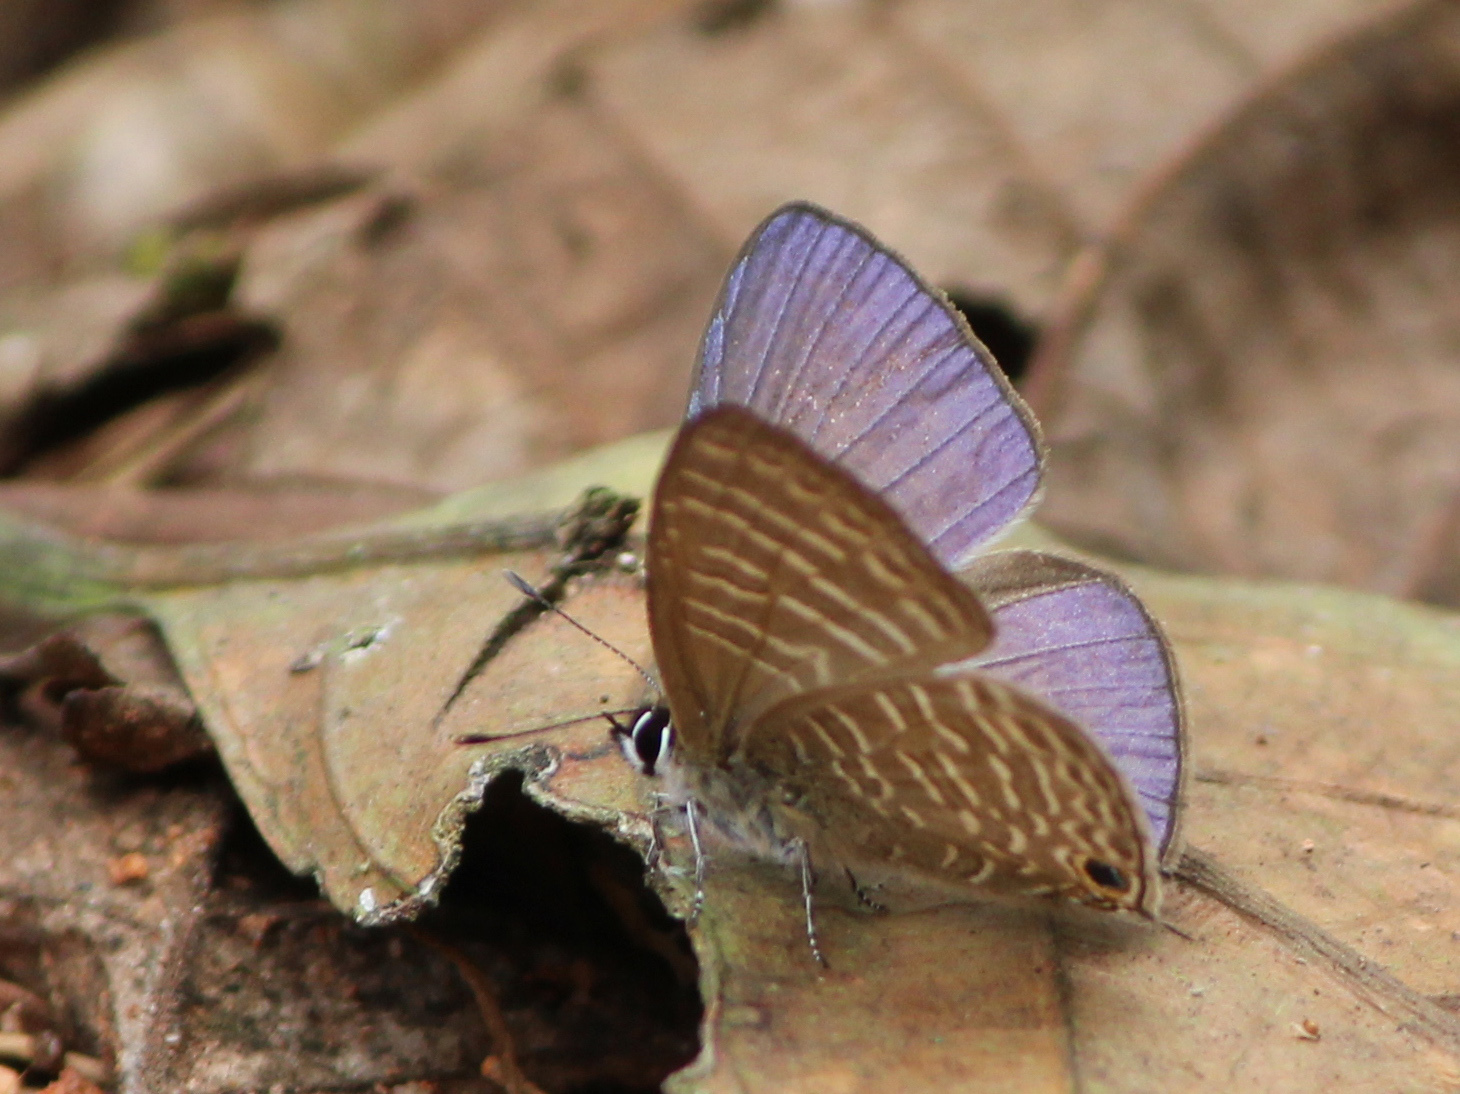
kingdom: Animalia
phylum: Arthropoda
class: Insecta
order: Lepidoptera
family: Lycaenidae
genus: Nacaduba
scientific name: Nacaduba beroe
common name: Opaque sixline blue
